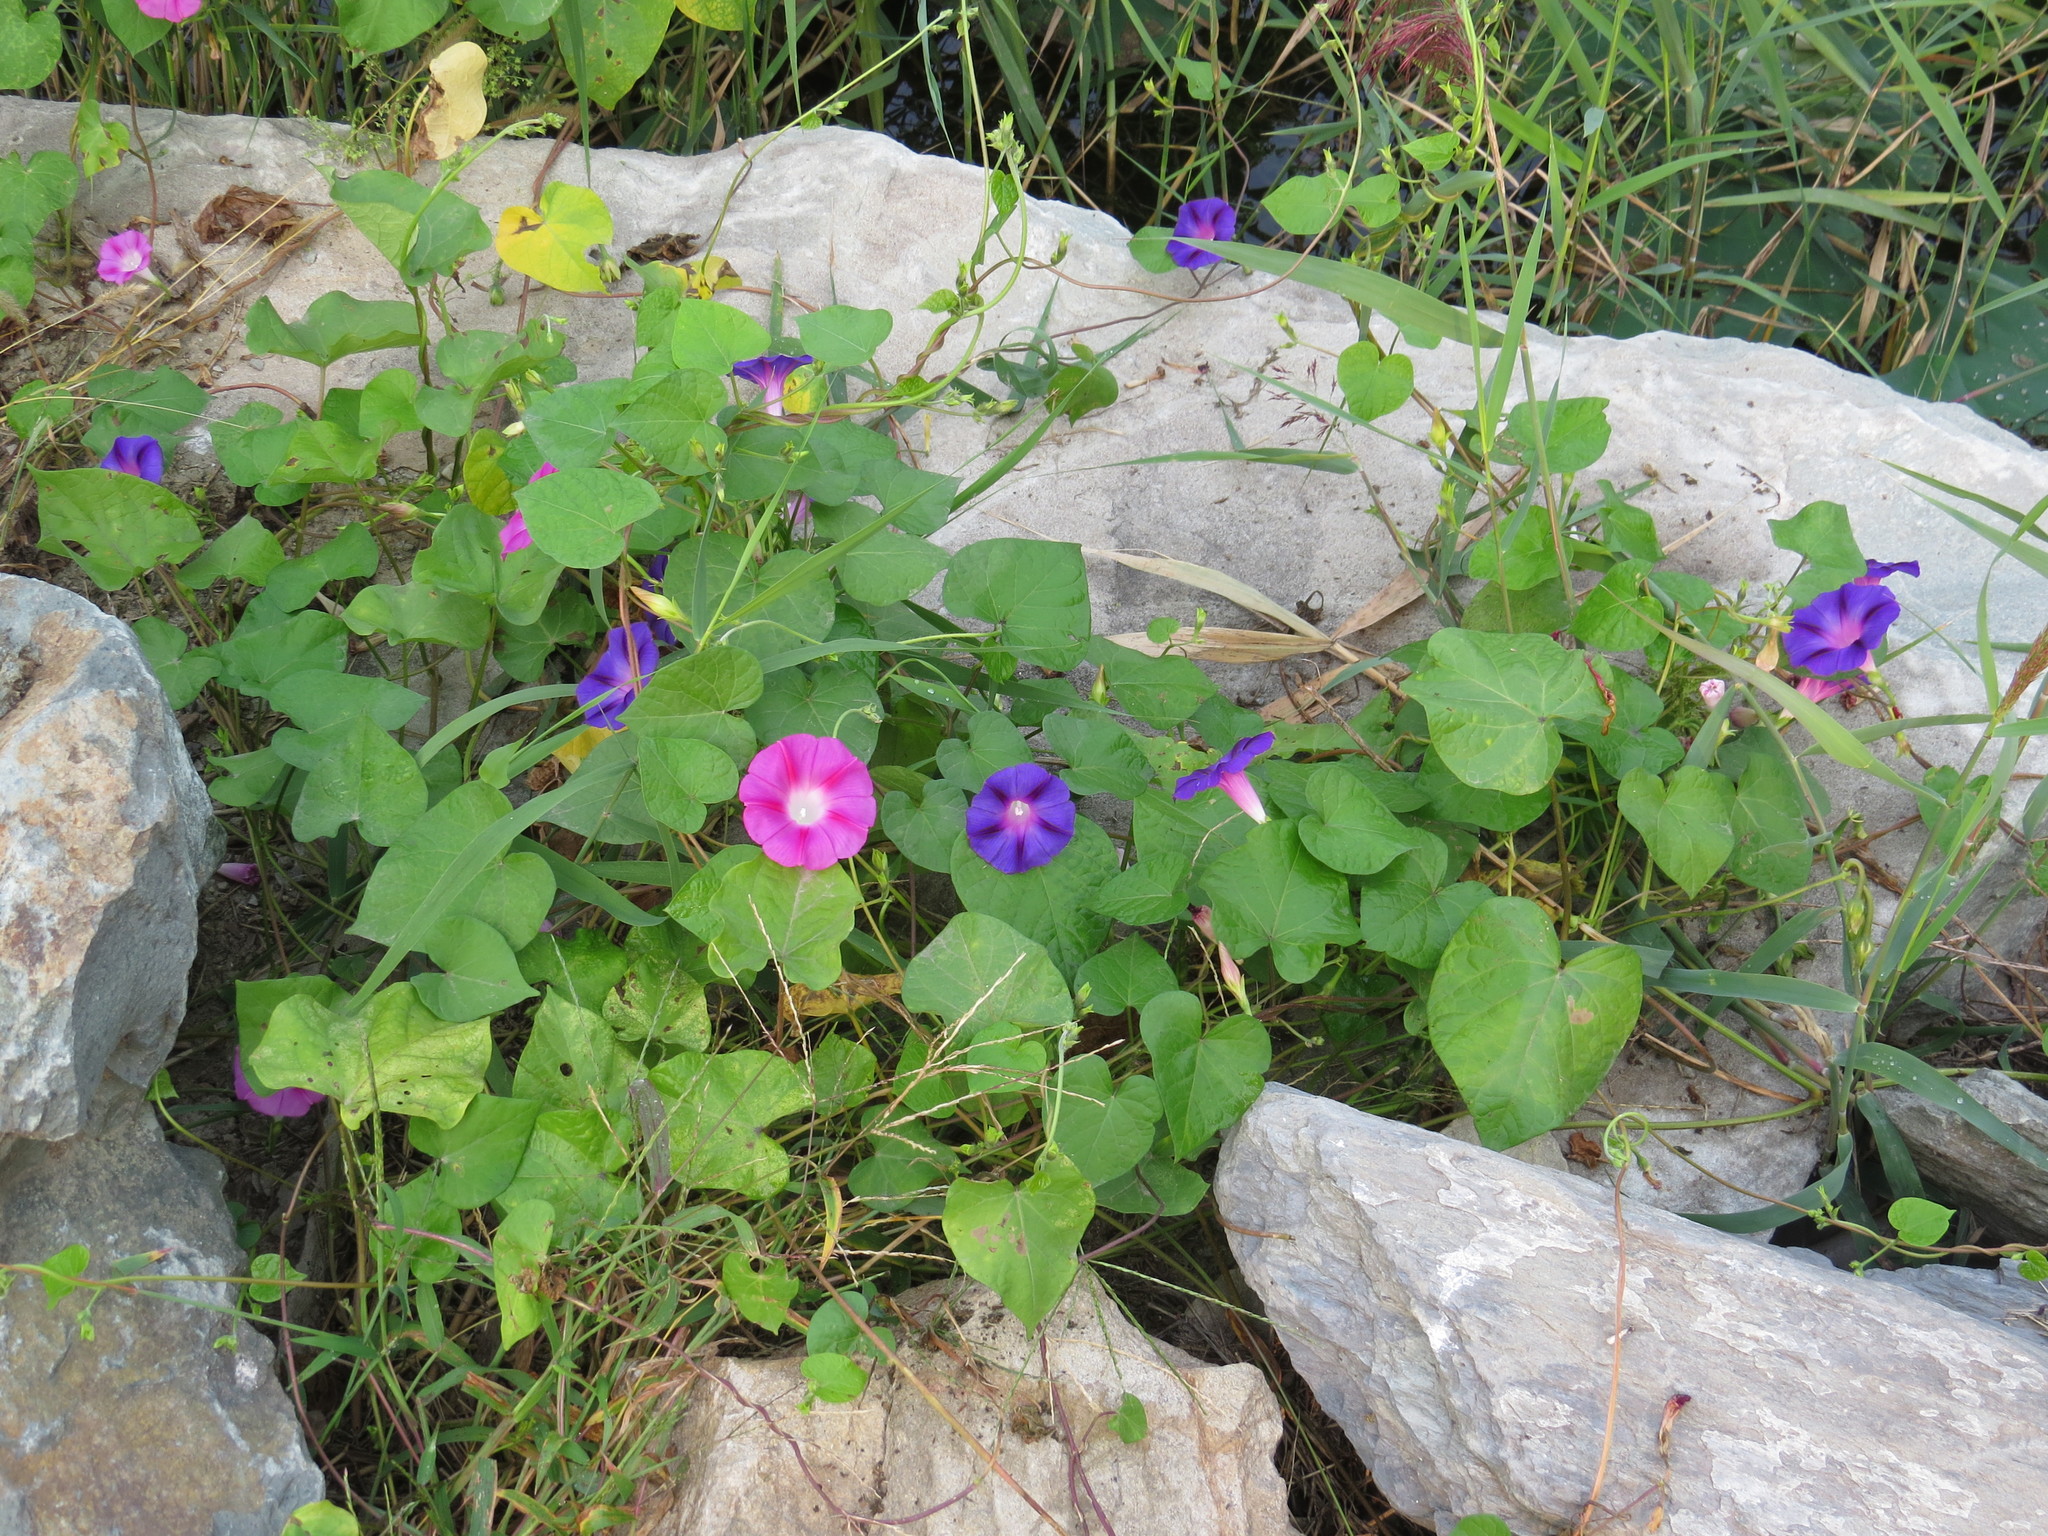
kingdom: Plantae
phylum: Tracheophyta
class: Magnoliopsida
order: Solanales
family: Convolvulaceae
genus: Ipomoea
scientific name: Ipomoea purpurea
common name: Common morning-glory
